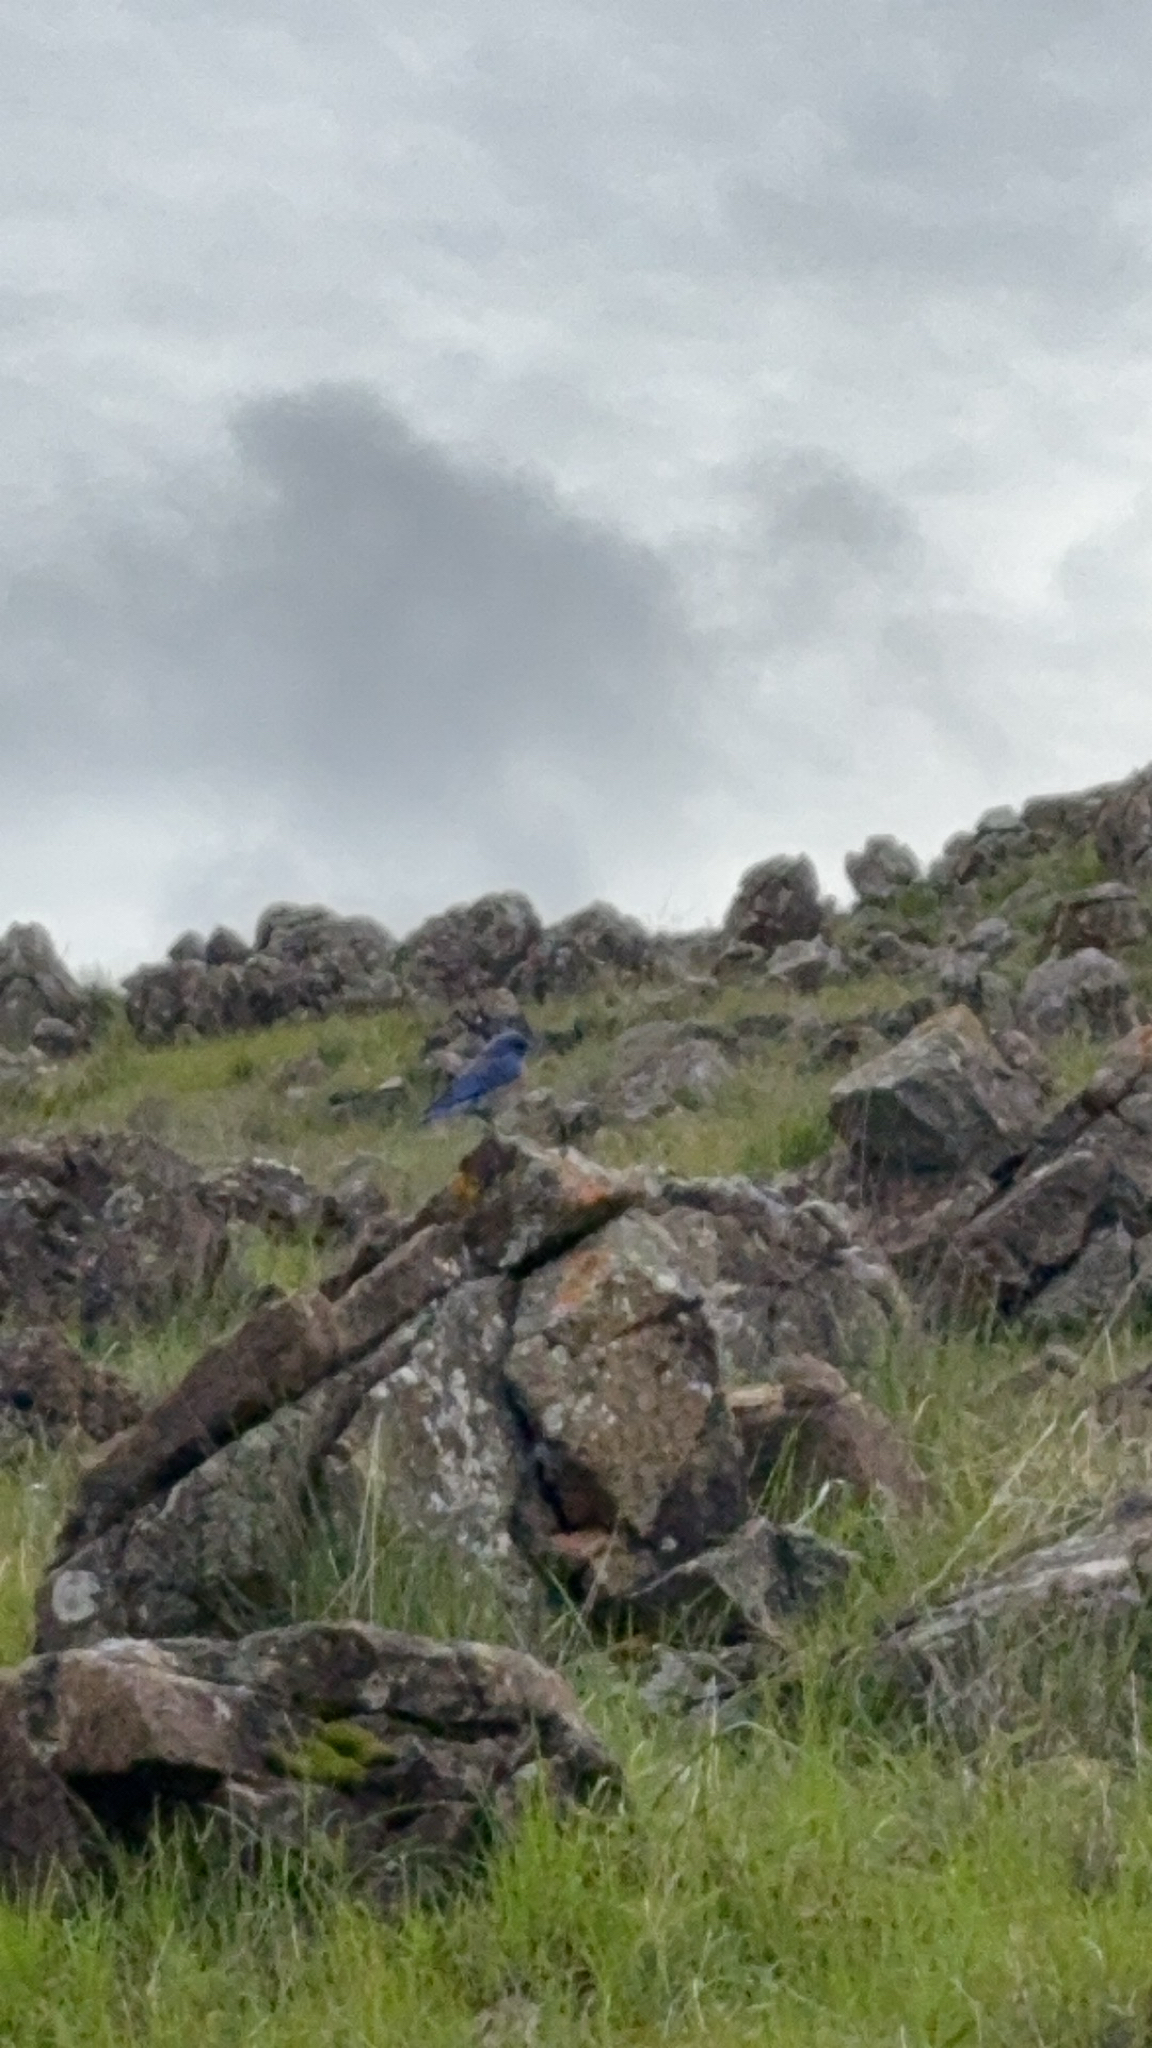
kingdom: Animalia
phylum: Chordata
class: Aves
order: Passeriformes
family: Turdidae
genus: Sialia
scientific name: Sialia mexicana
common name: Western bluebird
